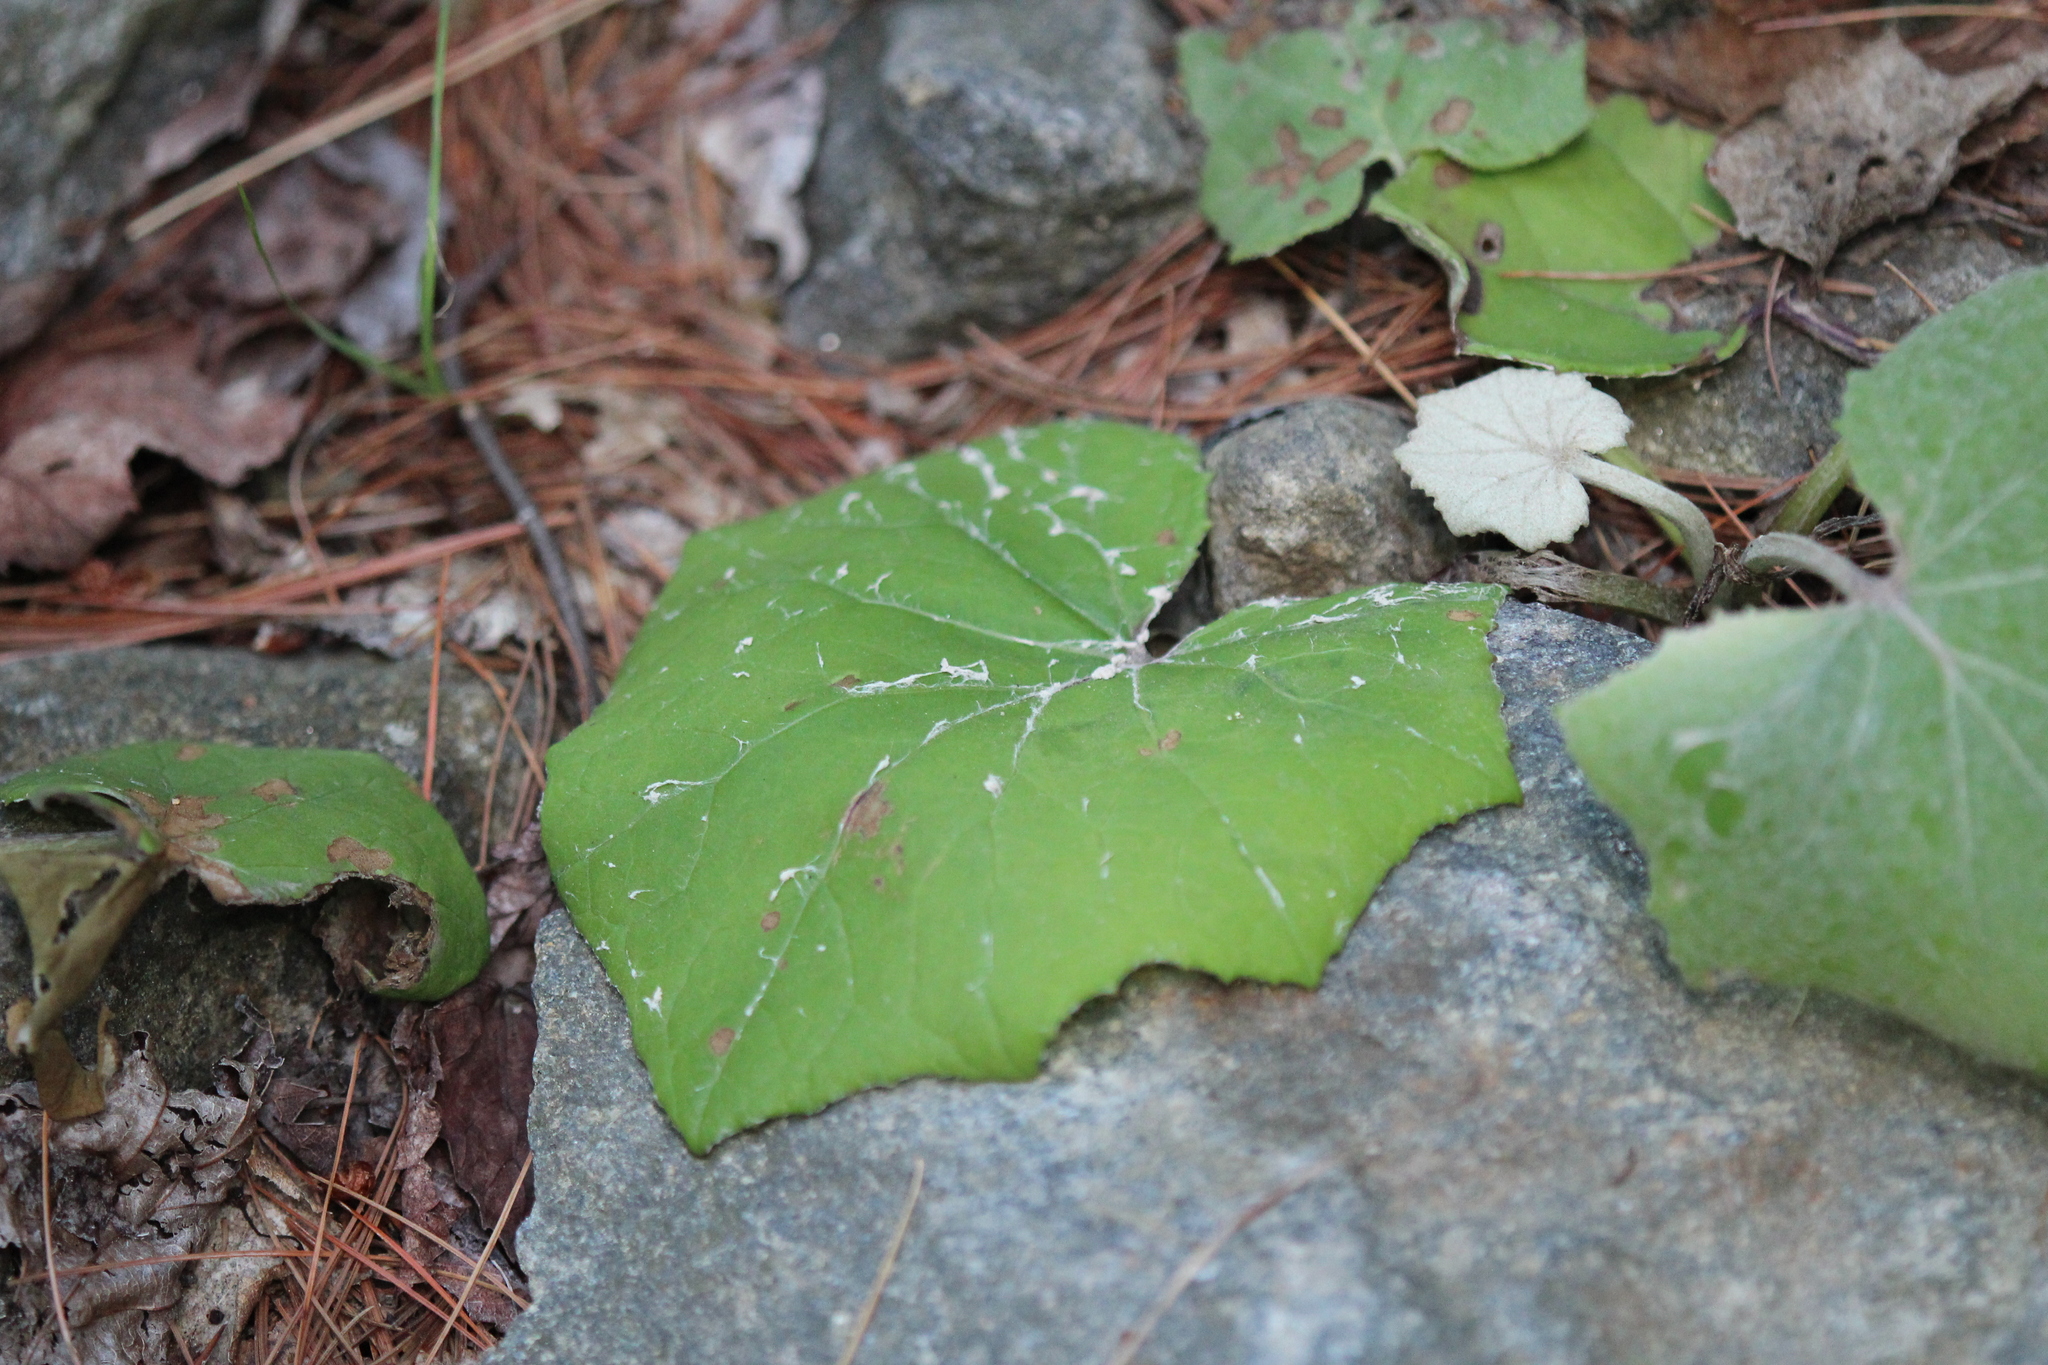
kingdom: Plantae
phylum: Tracheophyta
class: Magnoliopsida
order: Asterales
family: Asteraceae
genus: Tussilago
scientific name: Tussilago farfara
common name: Coltsfoot
